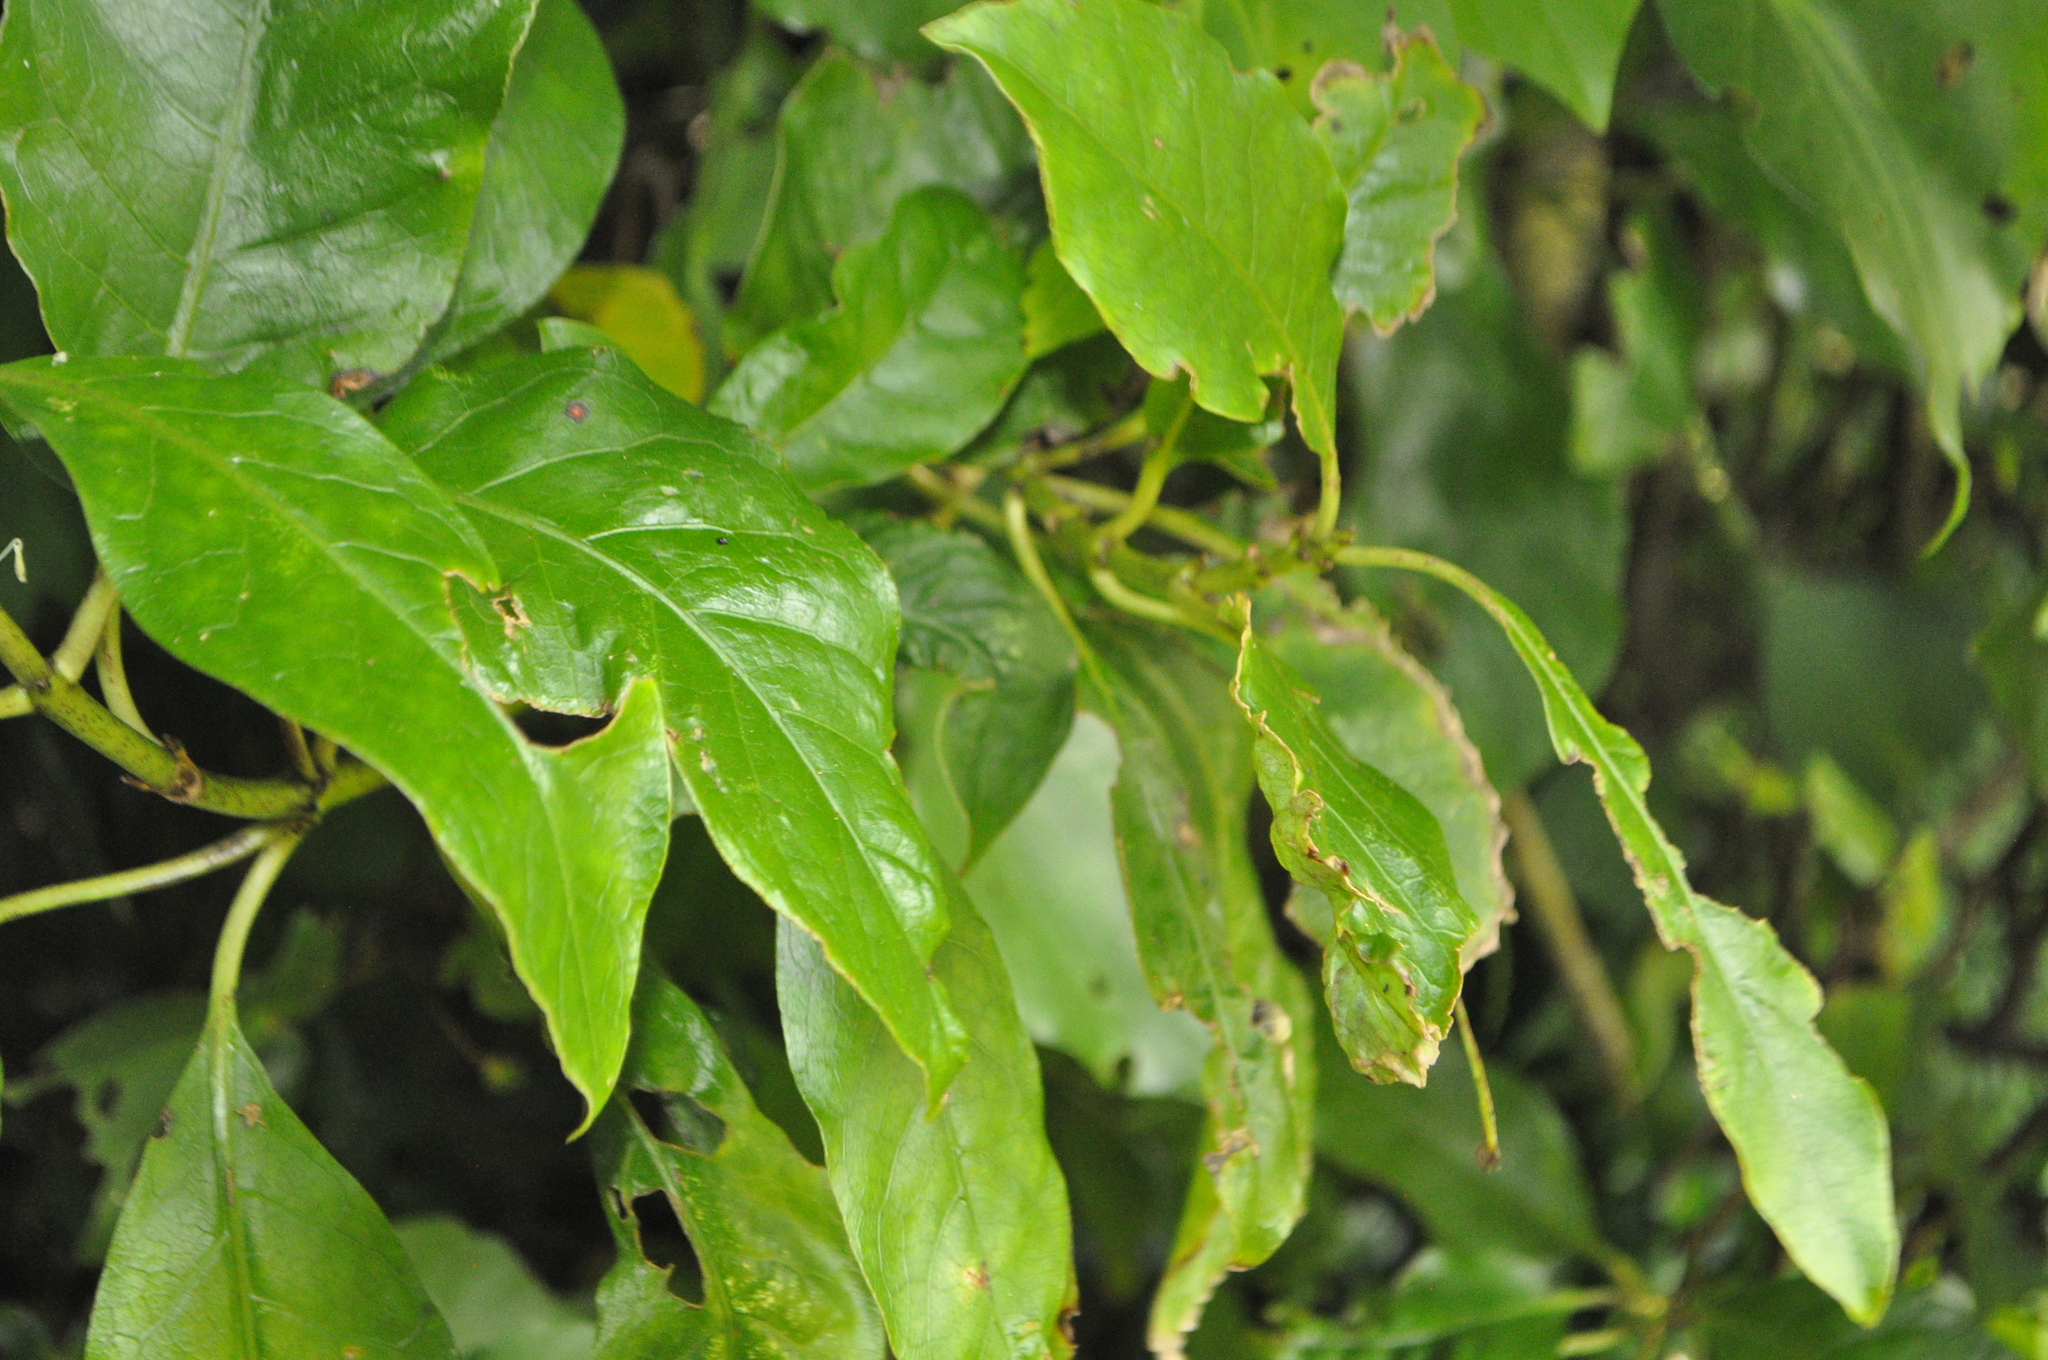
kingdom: Plantae
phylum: Tracheophyta
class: Magnoliopsida
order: Gentianales
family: Rubiaceae
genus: Coprosma
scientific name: Coprosma autumnalis
